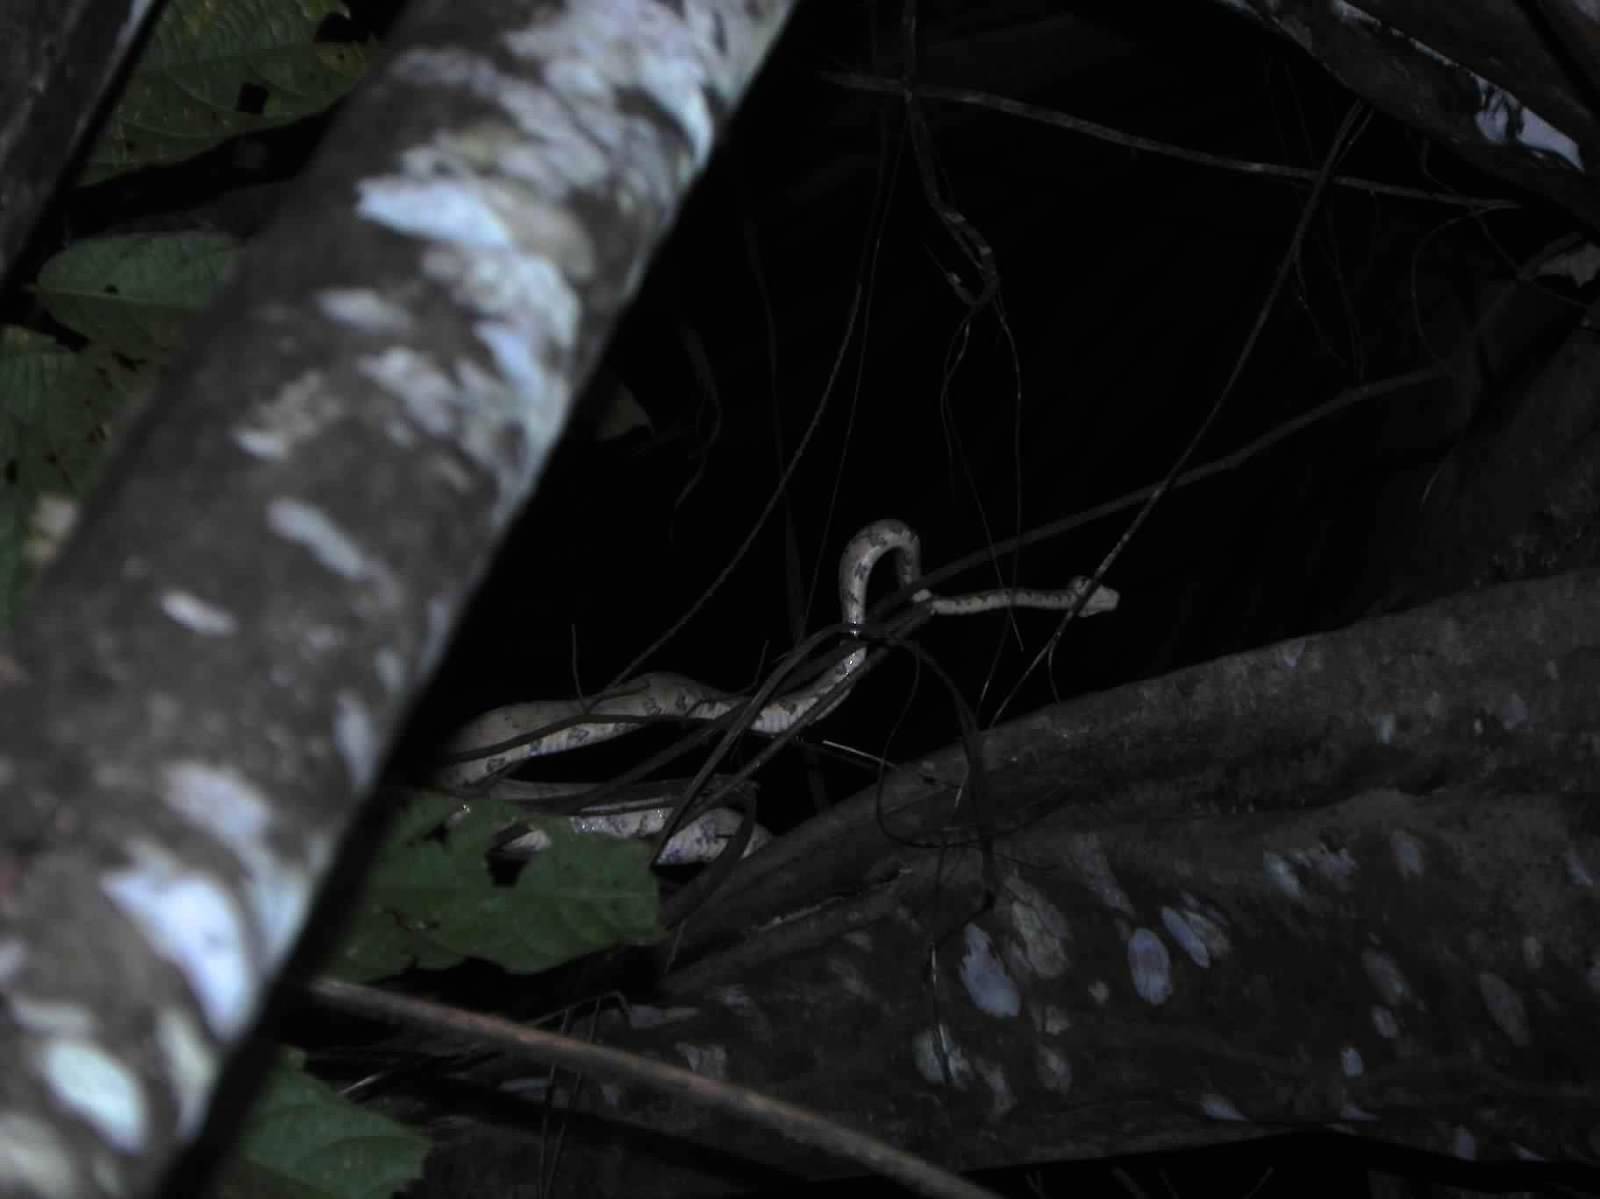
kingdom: Animalia
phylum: Chordata
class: Squamata
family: Boidae
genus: Corallus
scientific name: Corallus hortulana
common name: Garden tree boa
